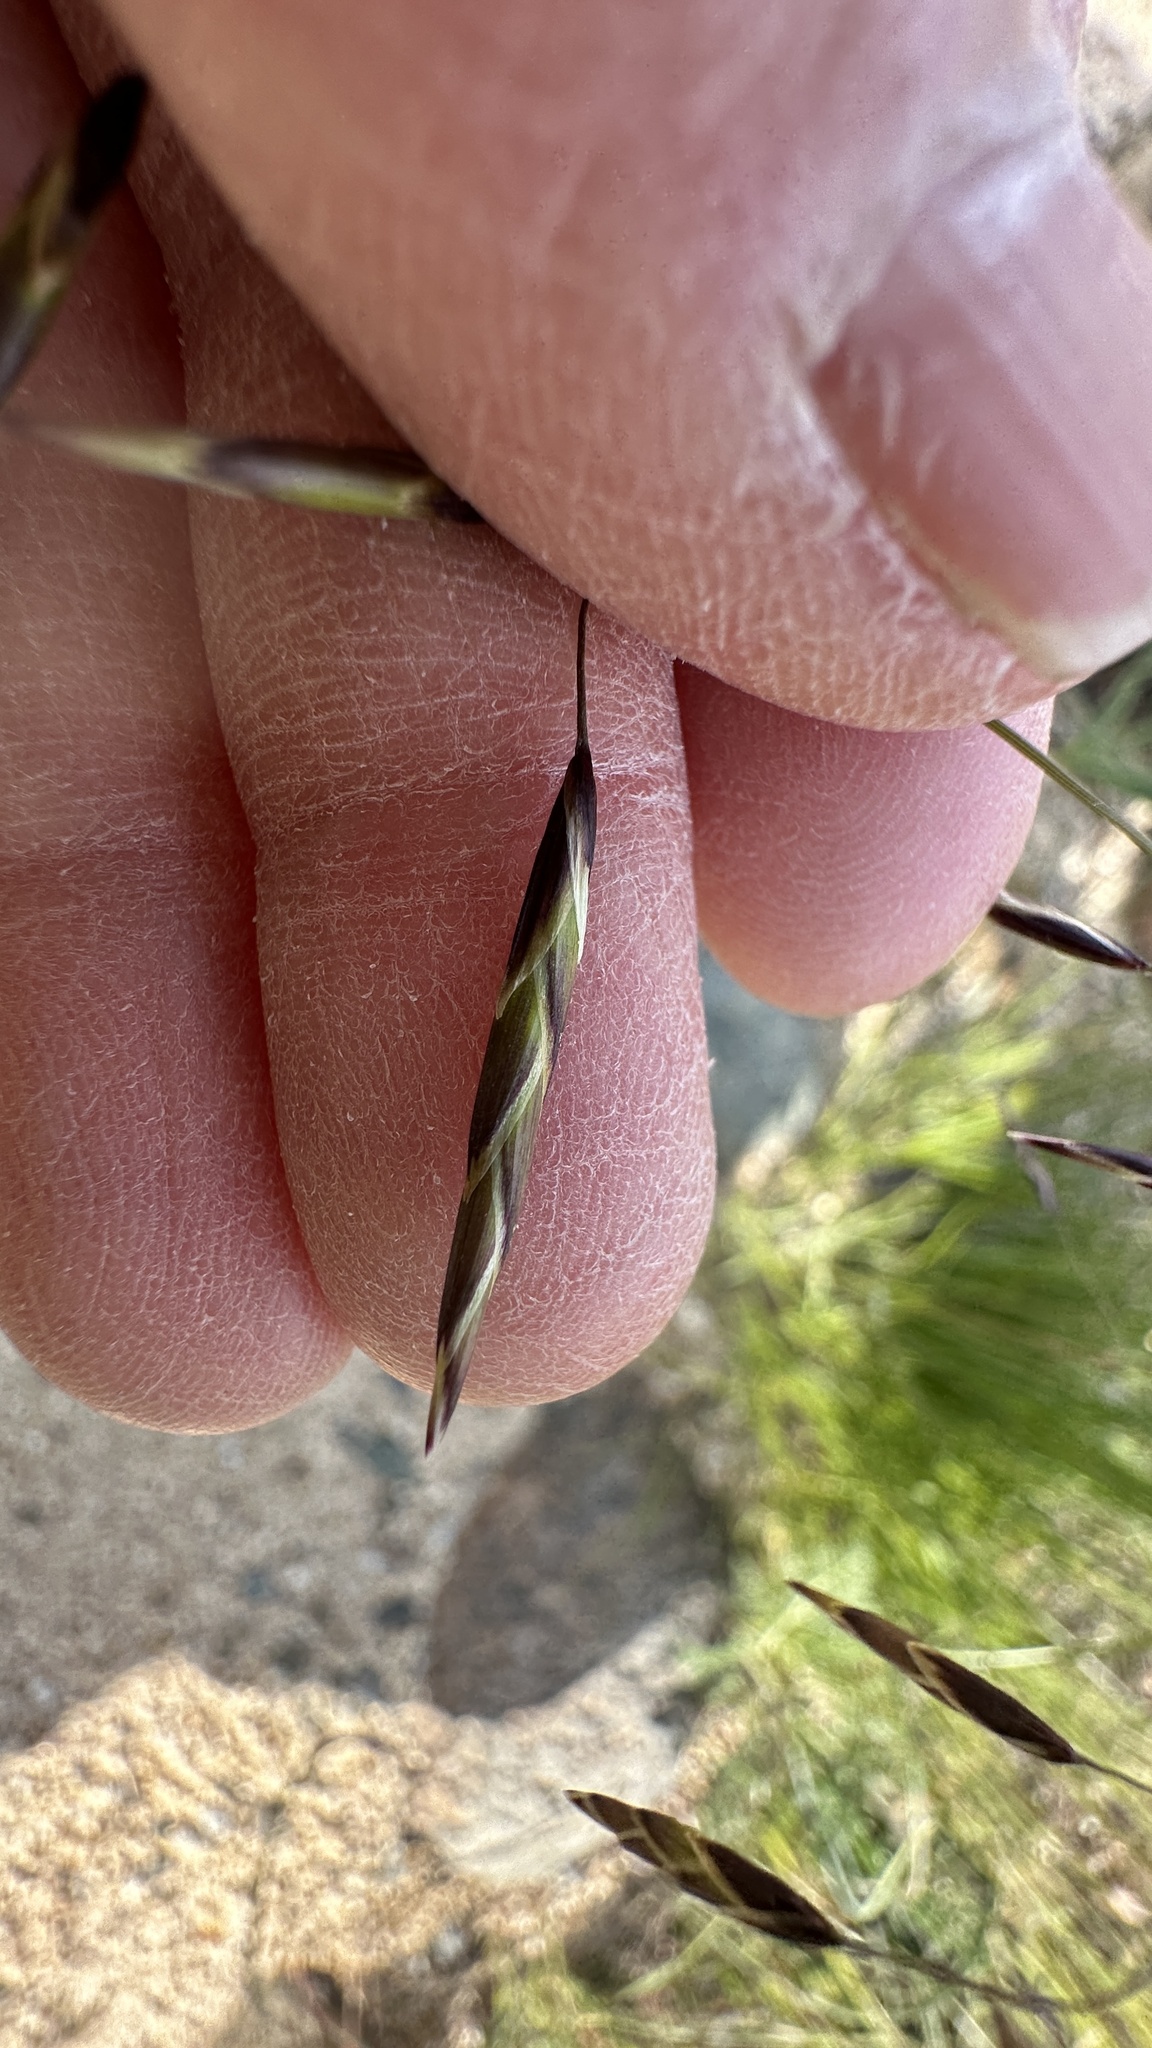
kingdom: Plantae
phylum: Tracheophyta
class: Liliopsida
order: Poales
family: Poaceae
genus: Melica
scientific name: Melica geyeri
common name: Geyer's oniongrass
